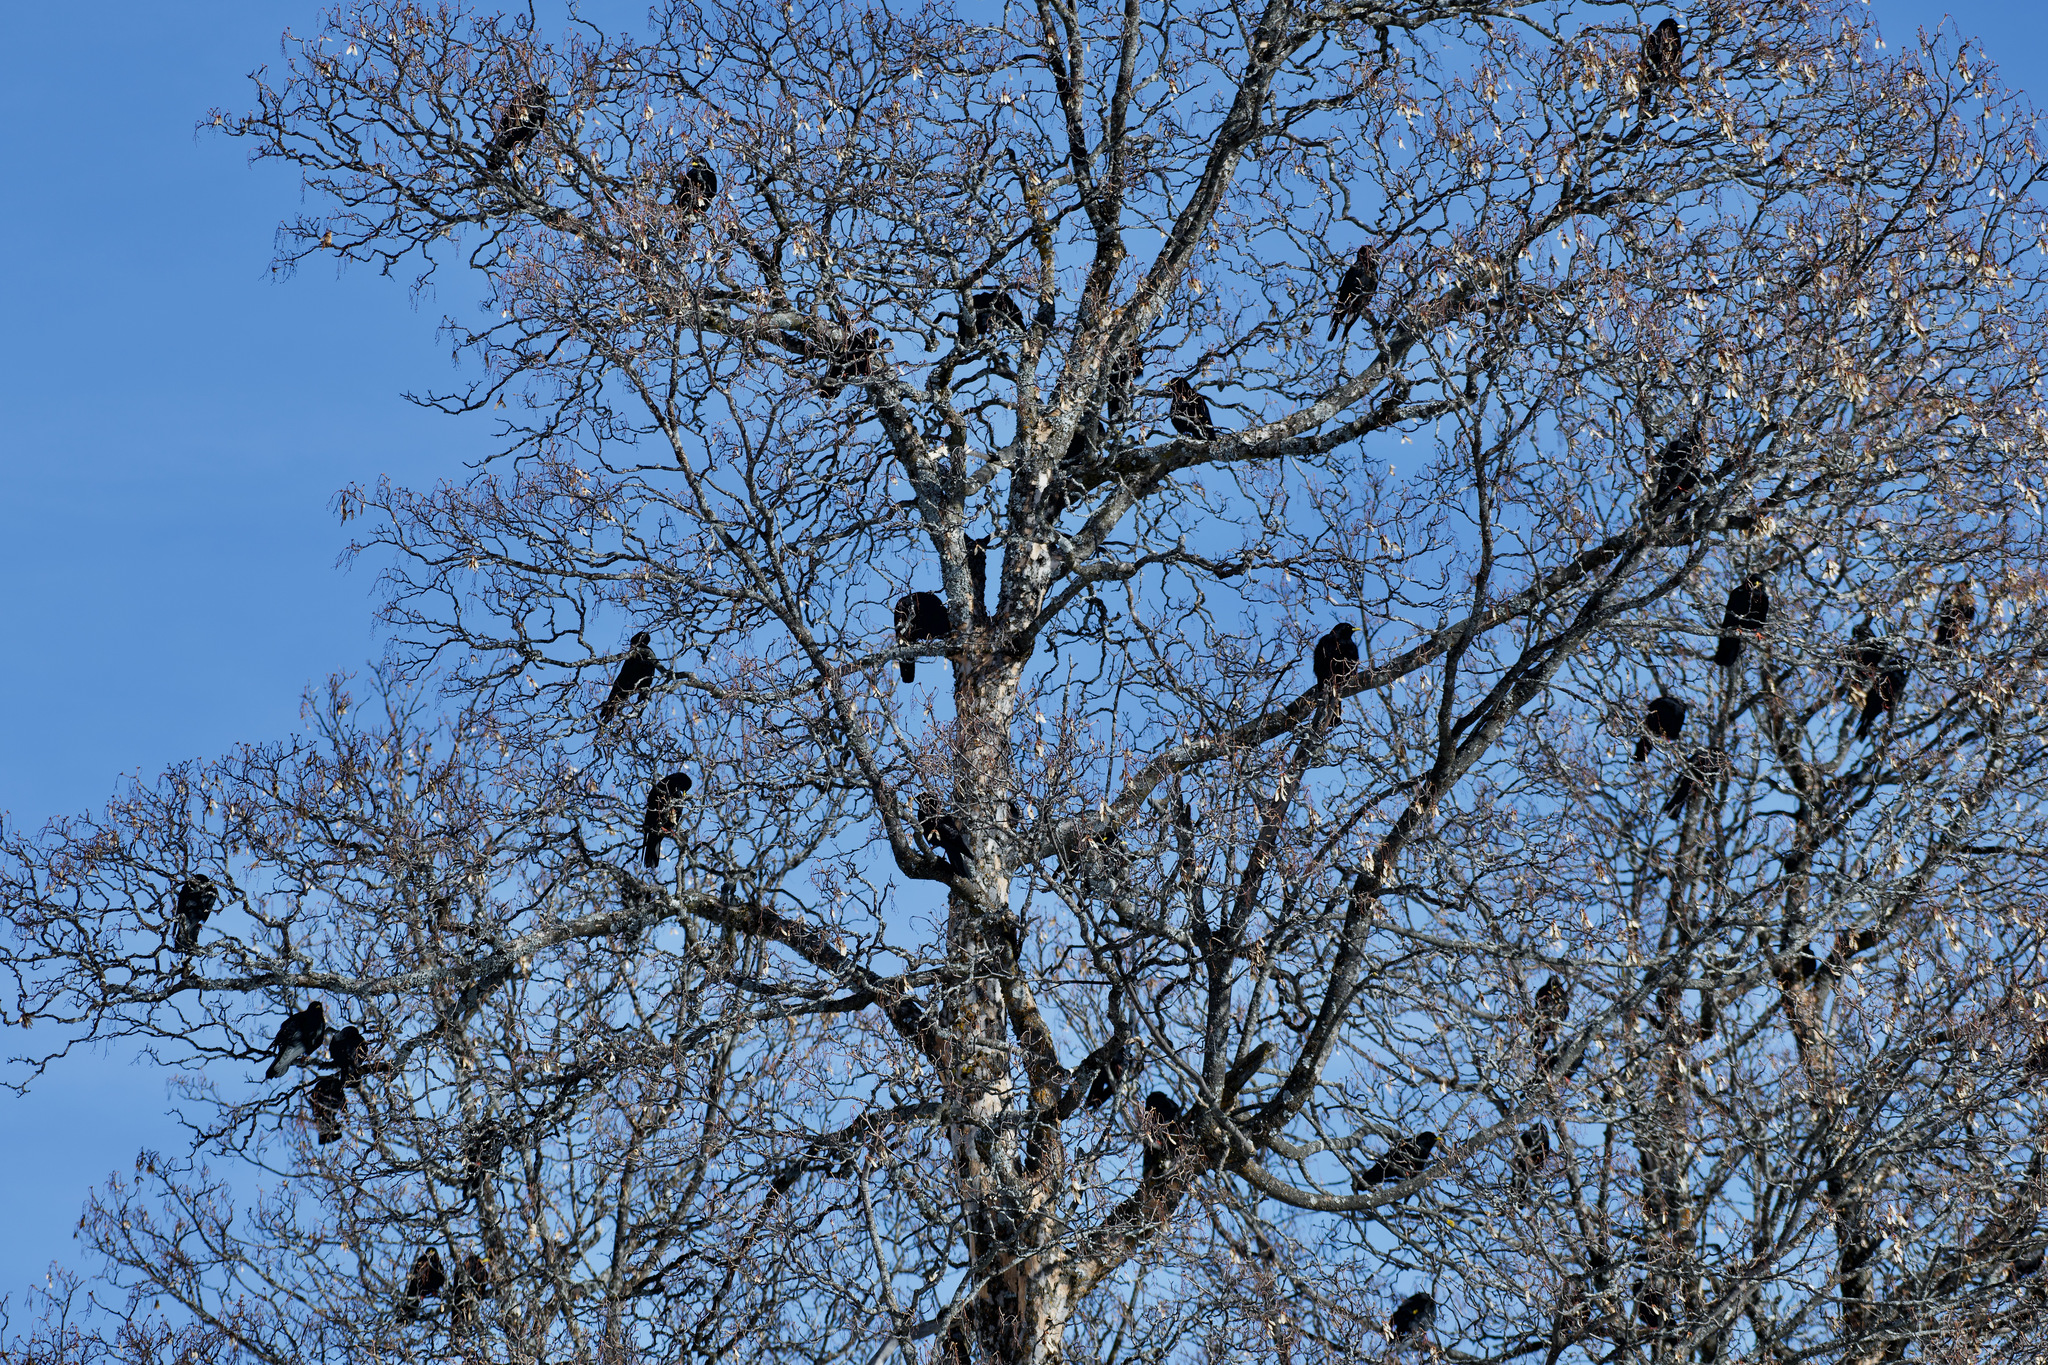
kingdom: Animalia
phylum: Chordata
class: Aves
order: Passeriformes
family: Corvidae
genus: Pyrrhocorax
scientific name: Pyrrhocorax graculus
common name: Alpine chough
